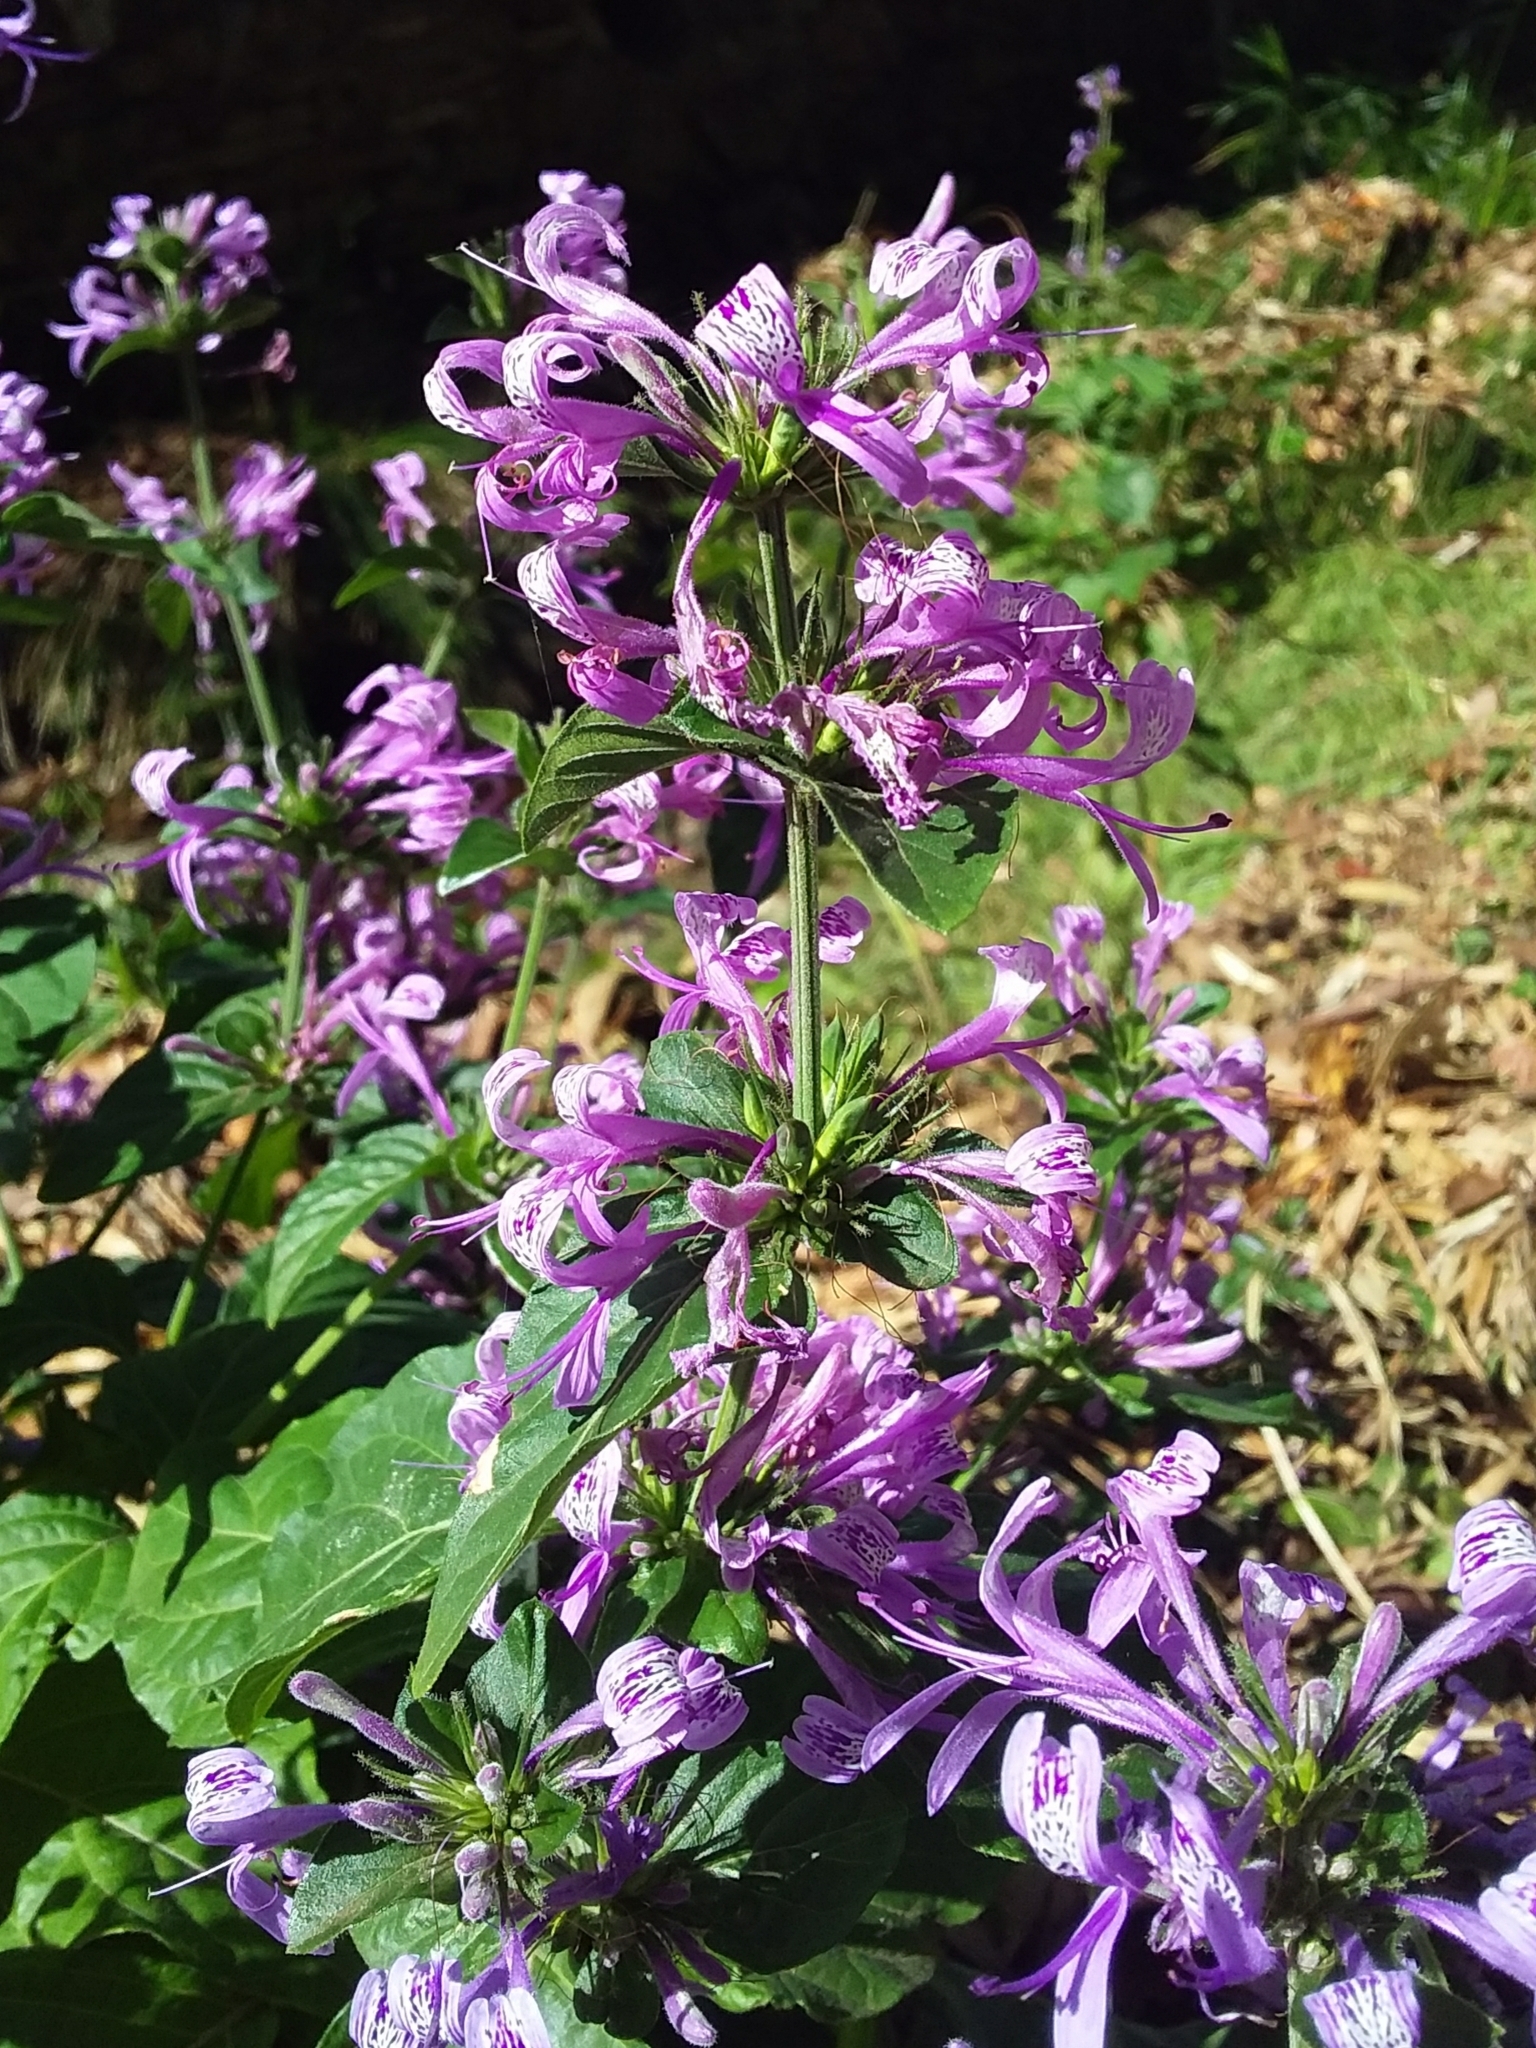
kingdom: Plantae
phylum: Tracheophyta
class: Magnoliopsida
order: Lamiales
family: Acanthaceae
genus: Hypoestes
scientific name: Hypoestes aristata
